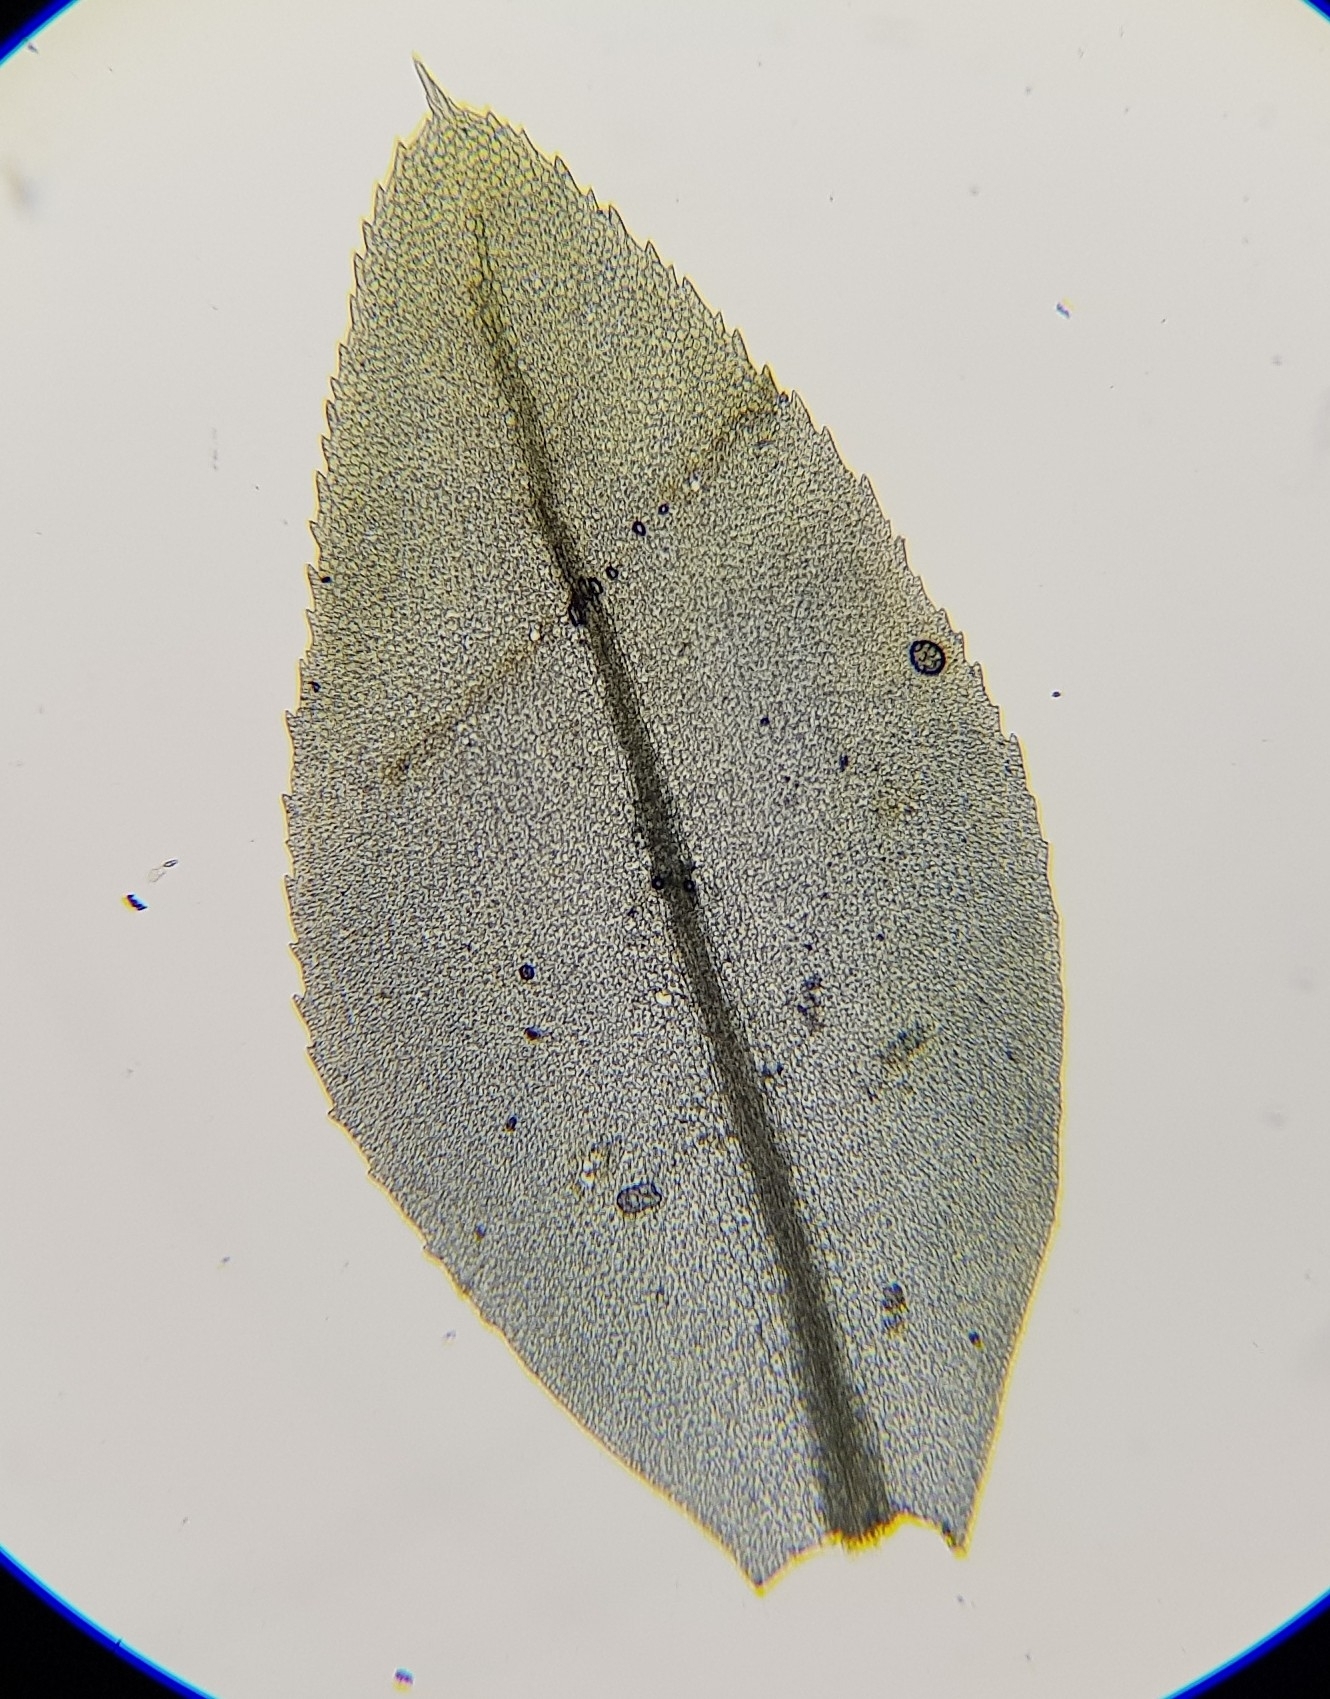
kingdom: Plantae
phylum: Bryophyta
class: Bryopsida
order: Bryales
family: Mniaceae
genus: Mnium
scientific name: Mnium stellare
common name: Star leafy moss
